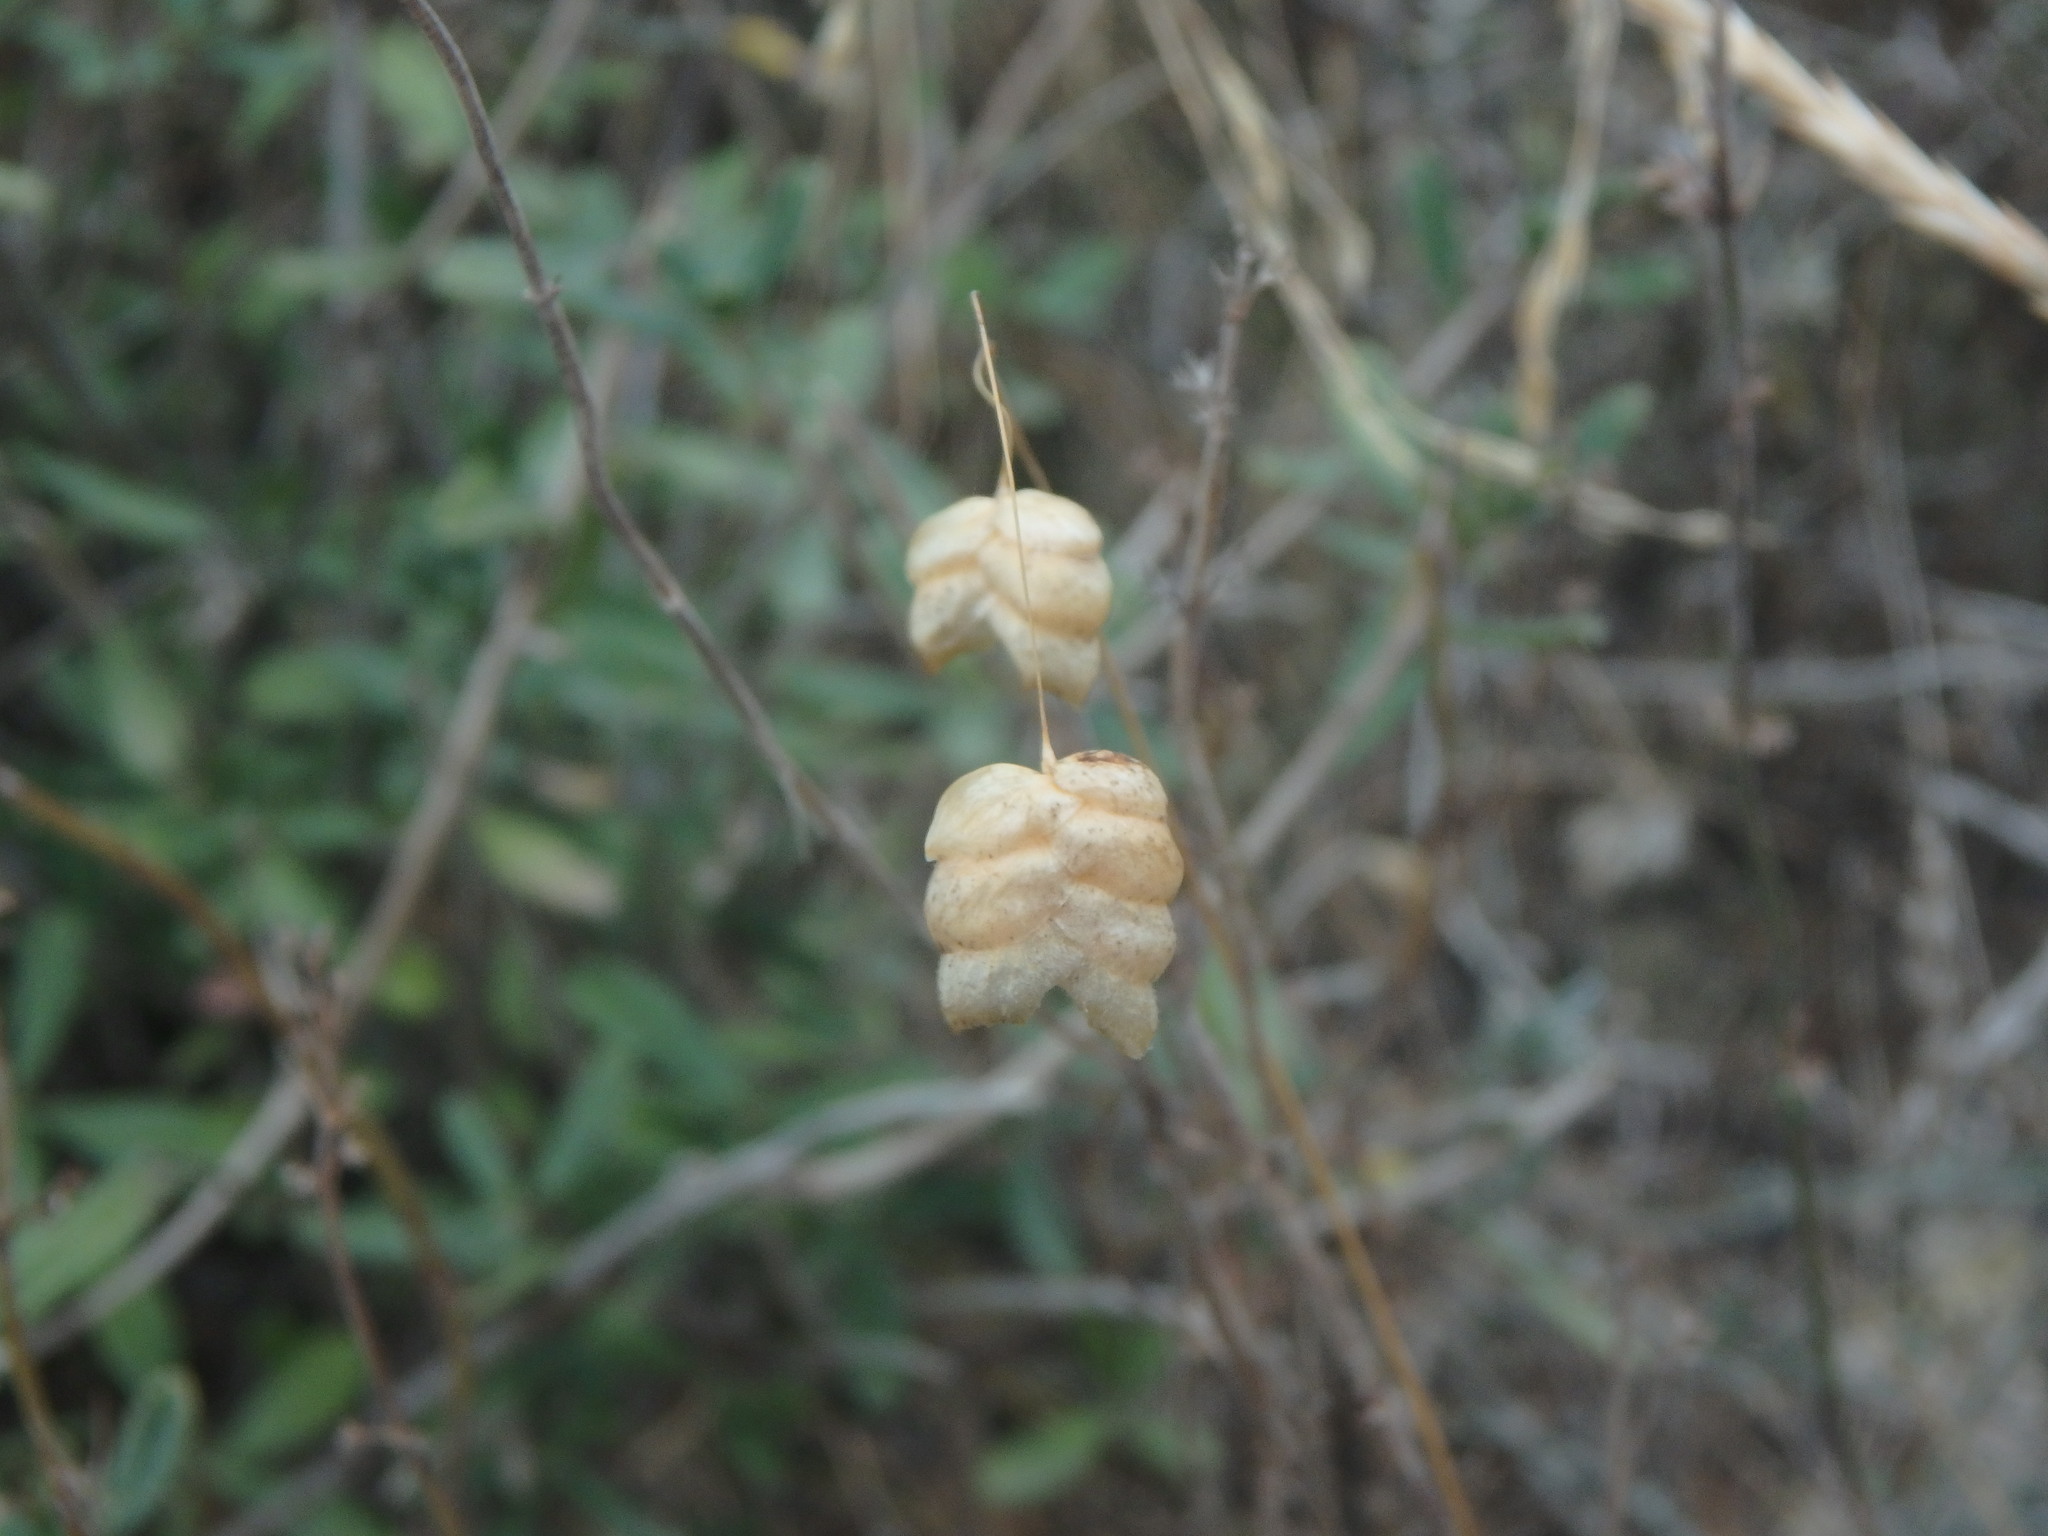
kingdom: Plantae
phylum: Tracheophyta
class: Liliopsida
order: Poales
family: Poaceae
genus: Briza
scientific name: Briza maxima
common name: Big quakinggrass
